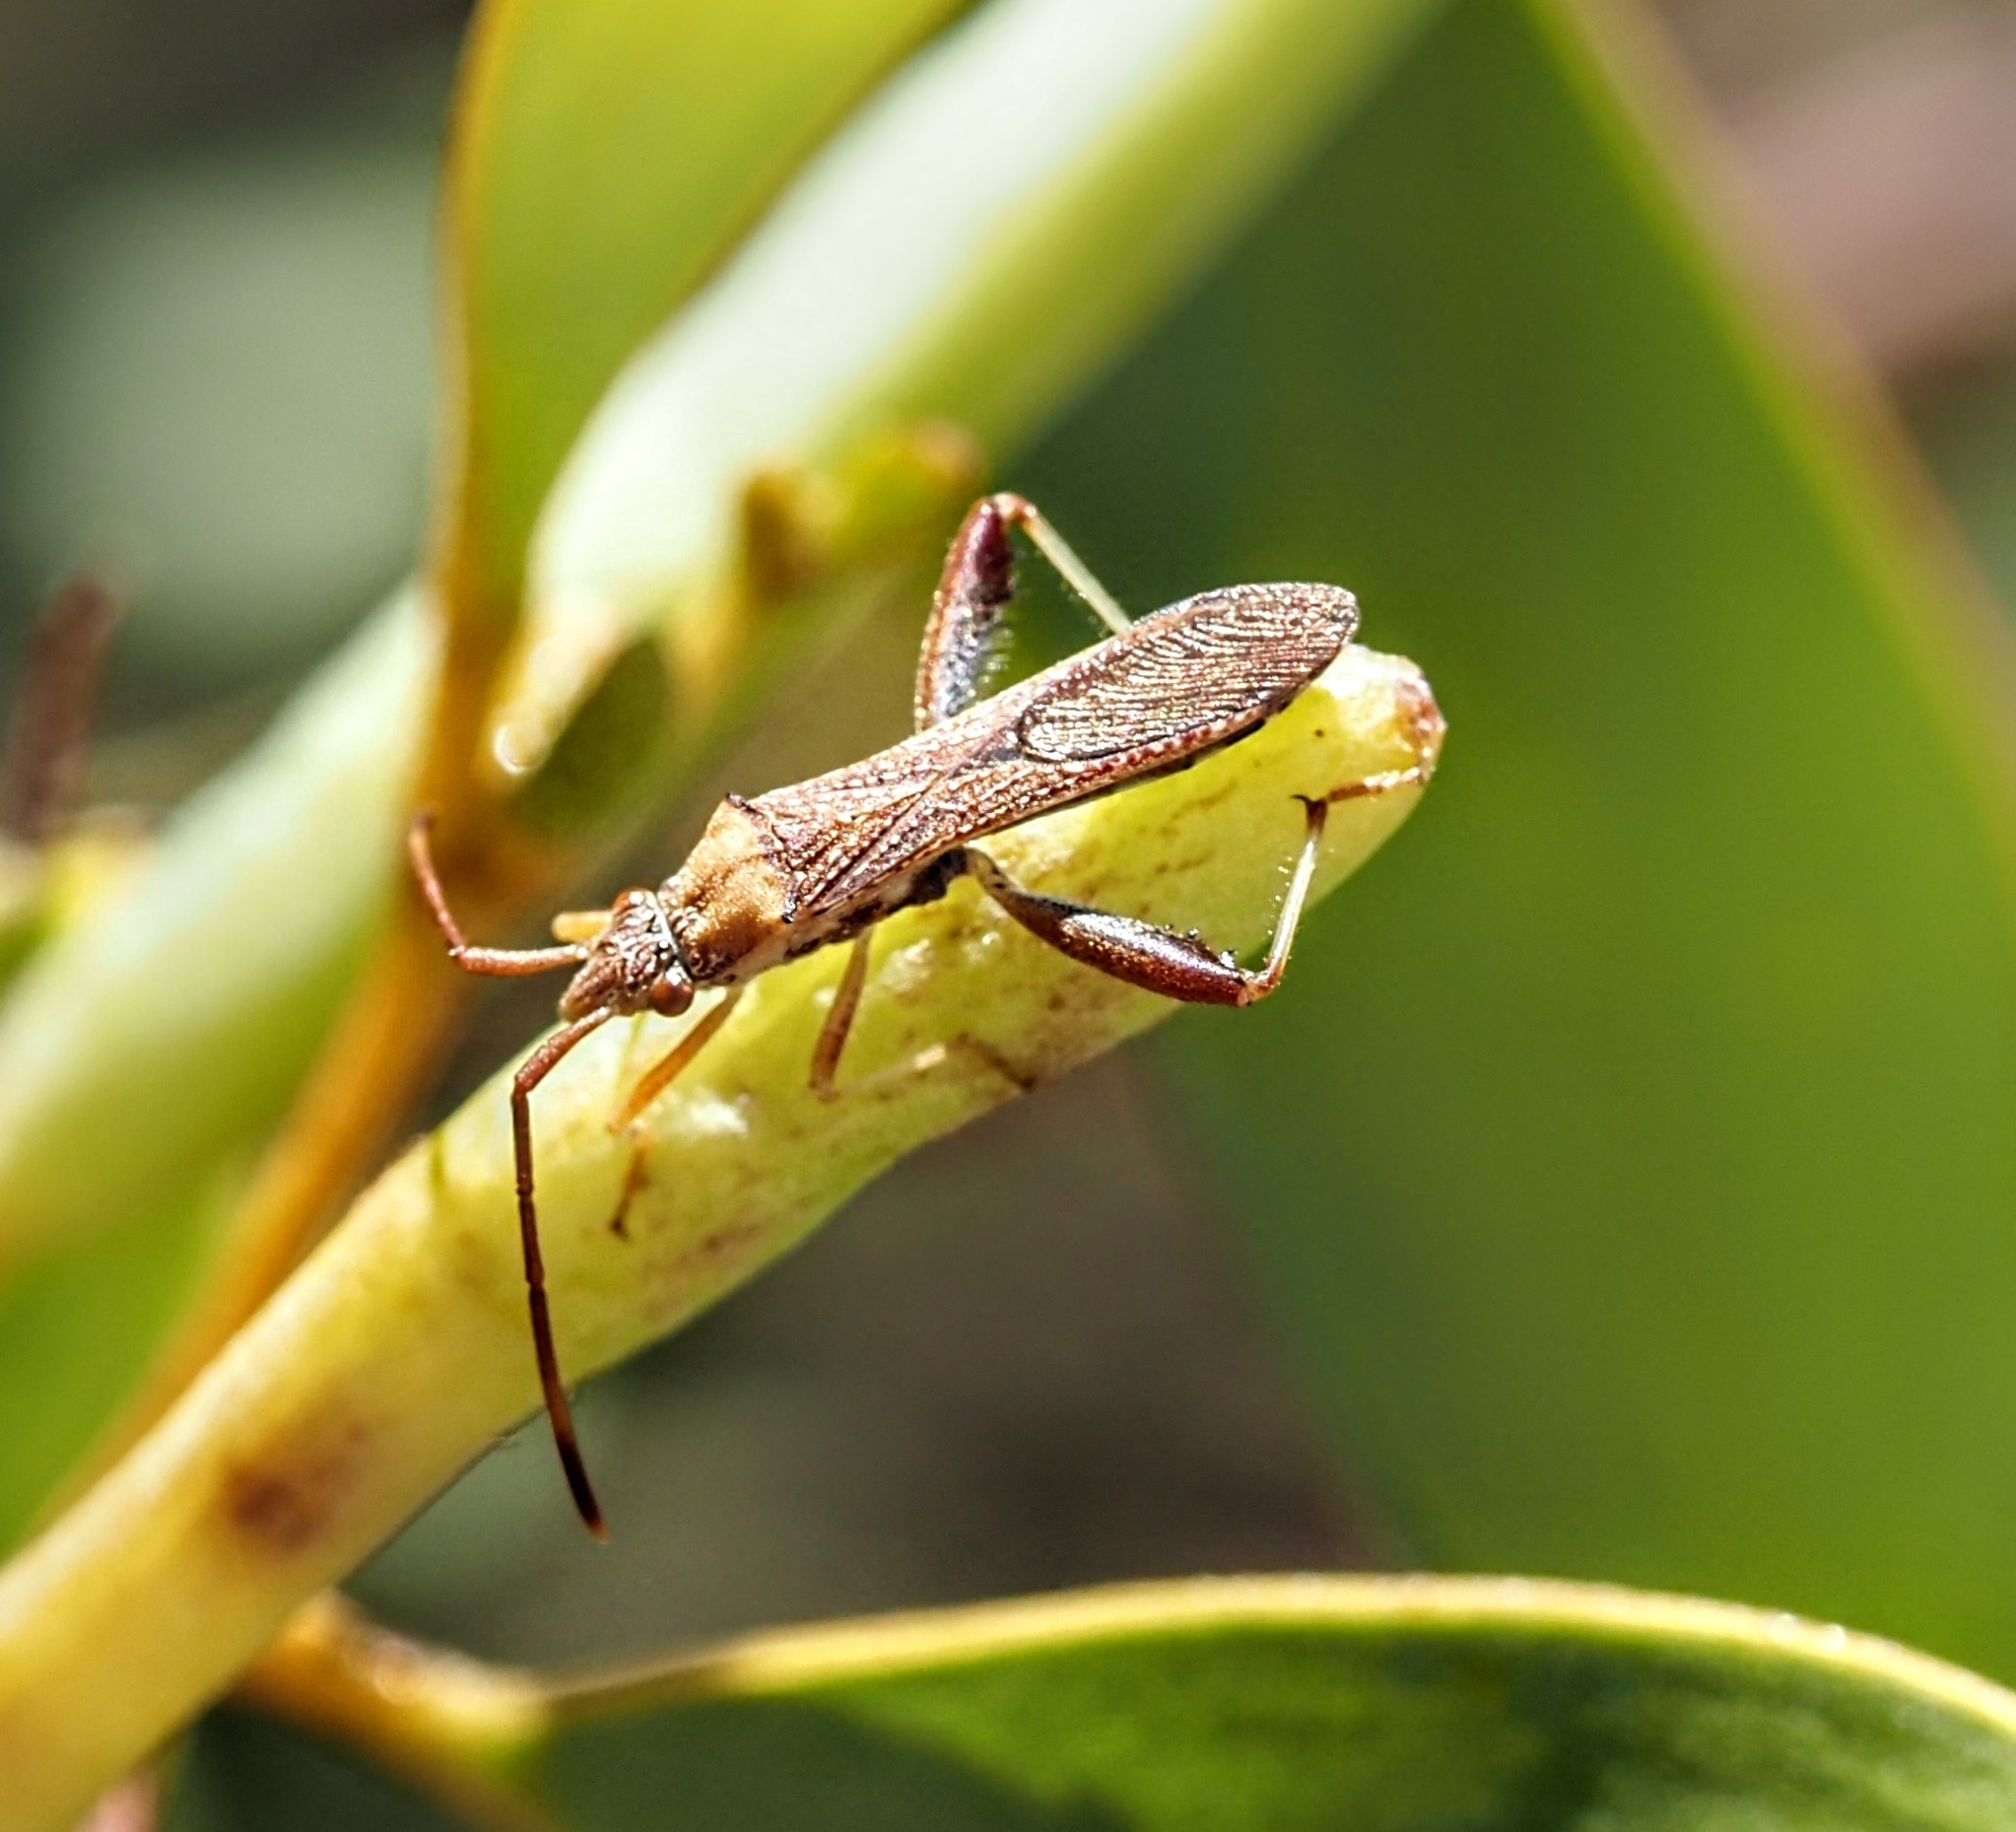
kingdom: Animalia
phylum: Arthropoda
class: Insecta
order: Hemiptera
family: Alydidae
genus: Hamedius
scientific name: Hamedius incarnatus
